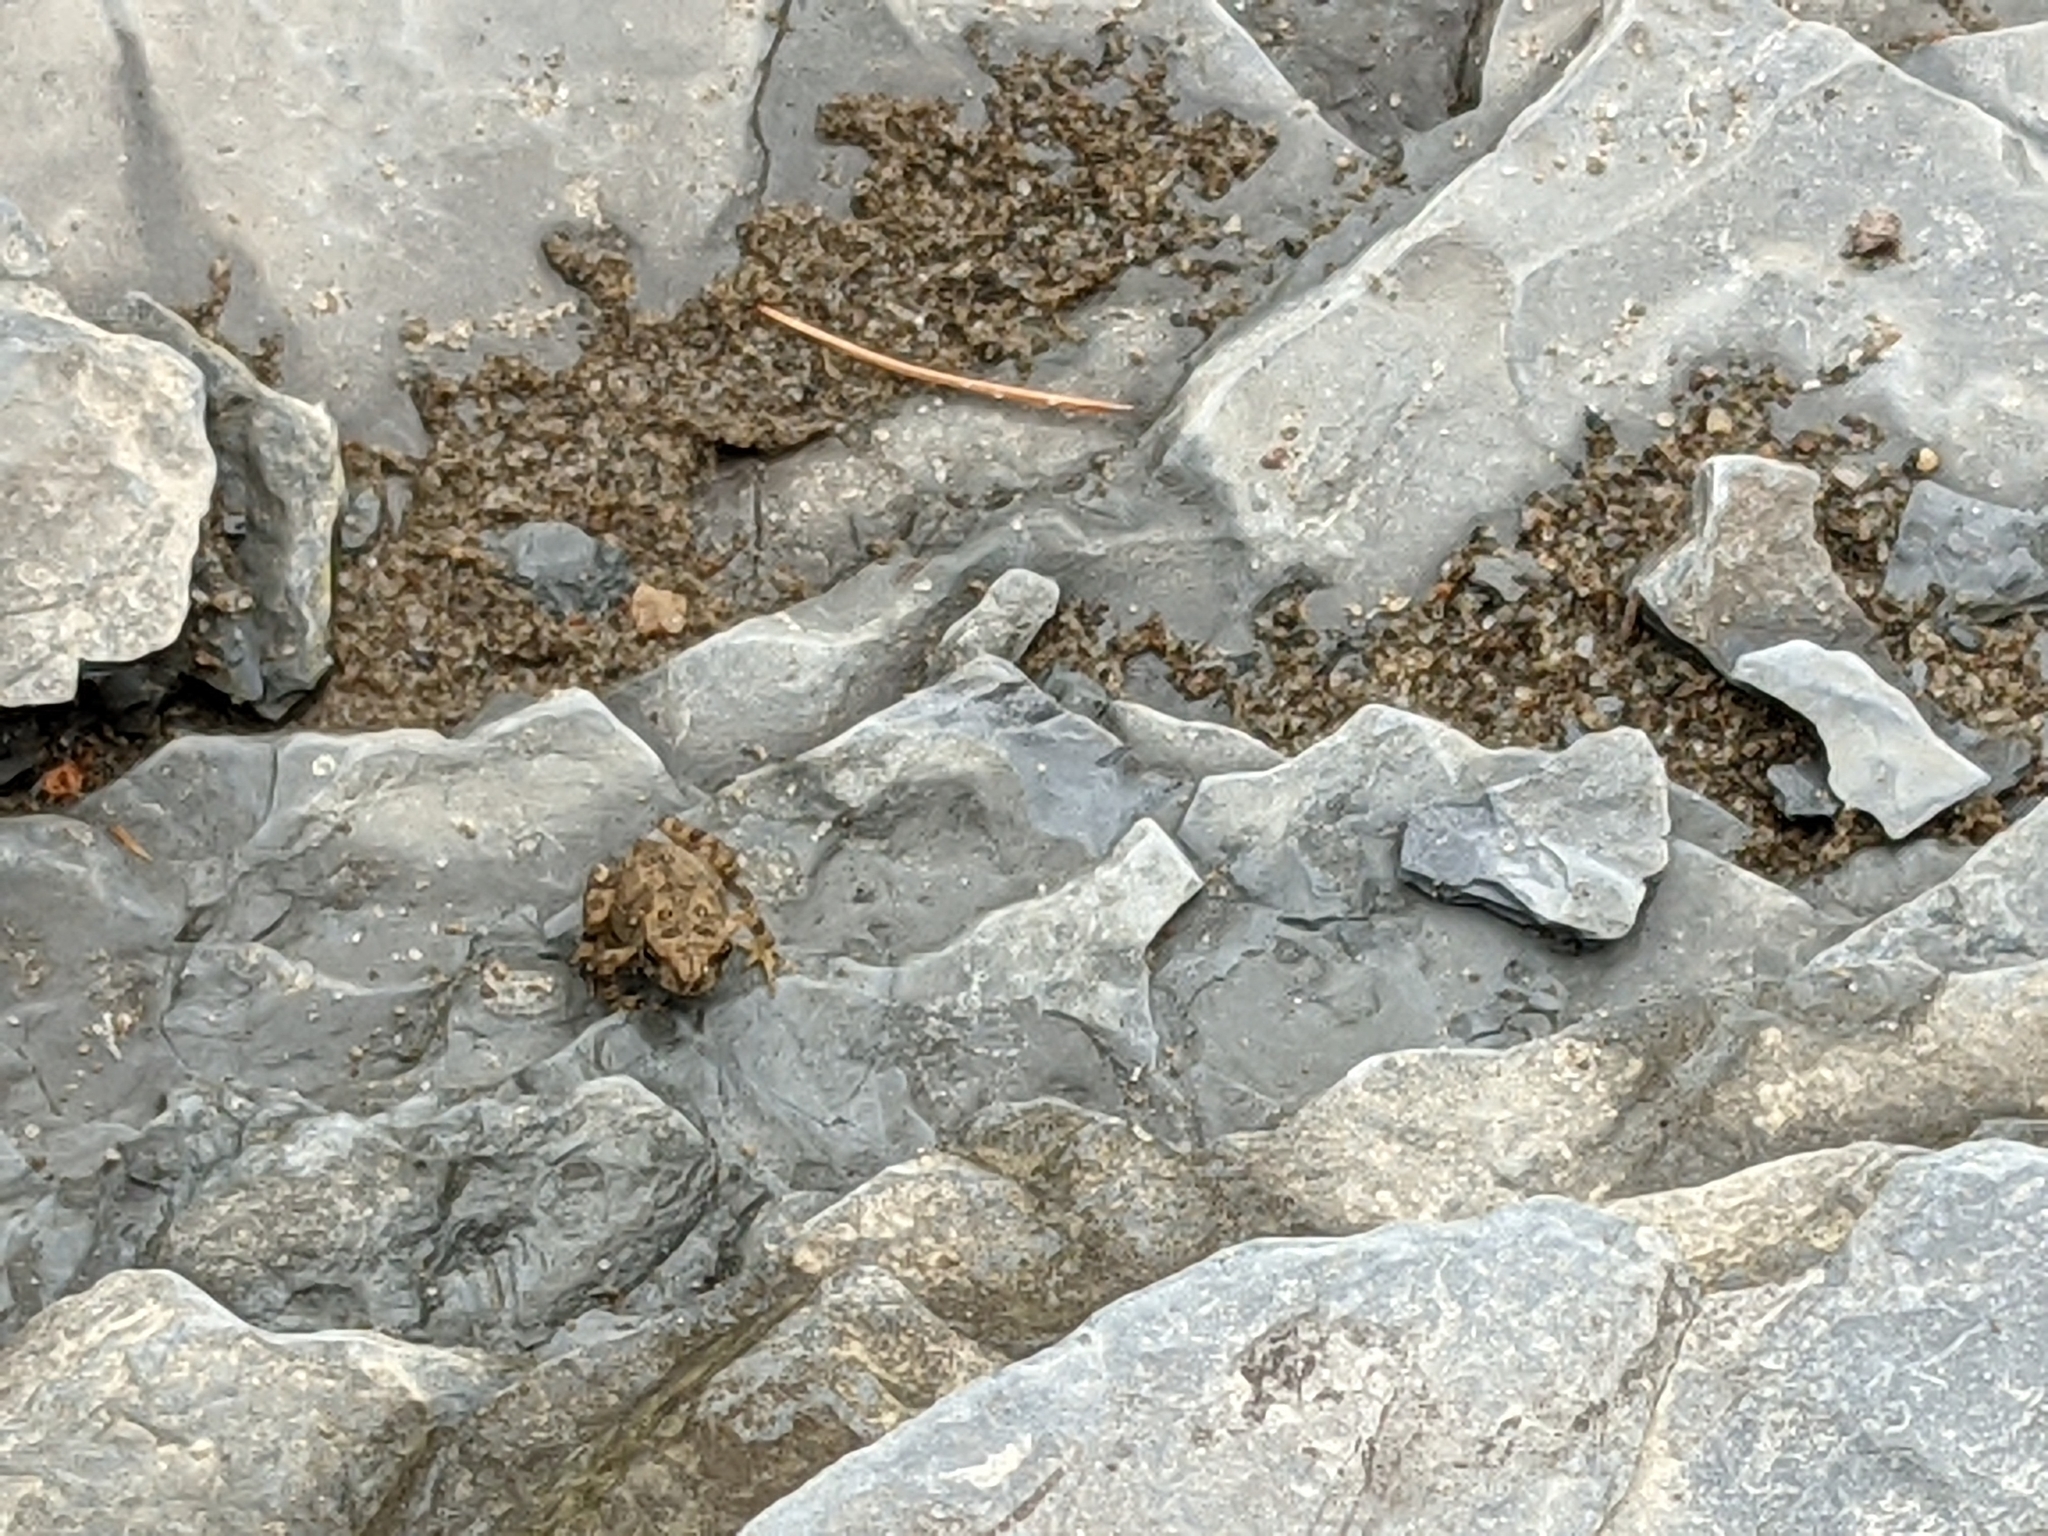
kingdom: Animalia
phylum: Chordata
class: Amphibia
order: Anura
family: Bufonidae
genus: Anaxyrus
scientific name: Anaxyrus americanus
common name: American toad
